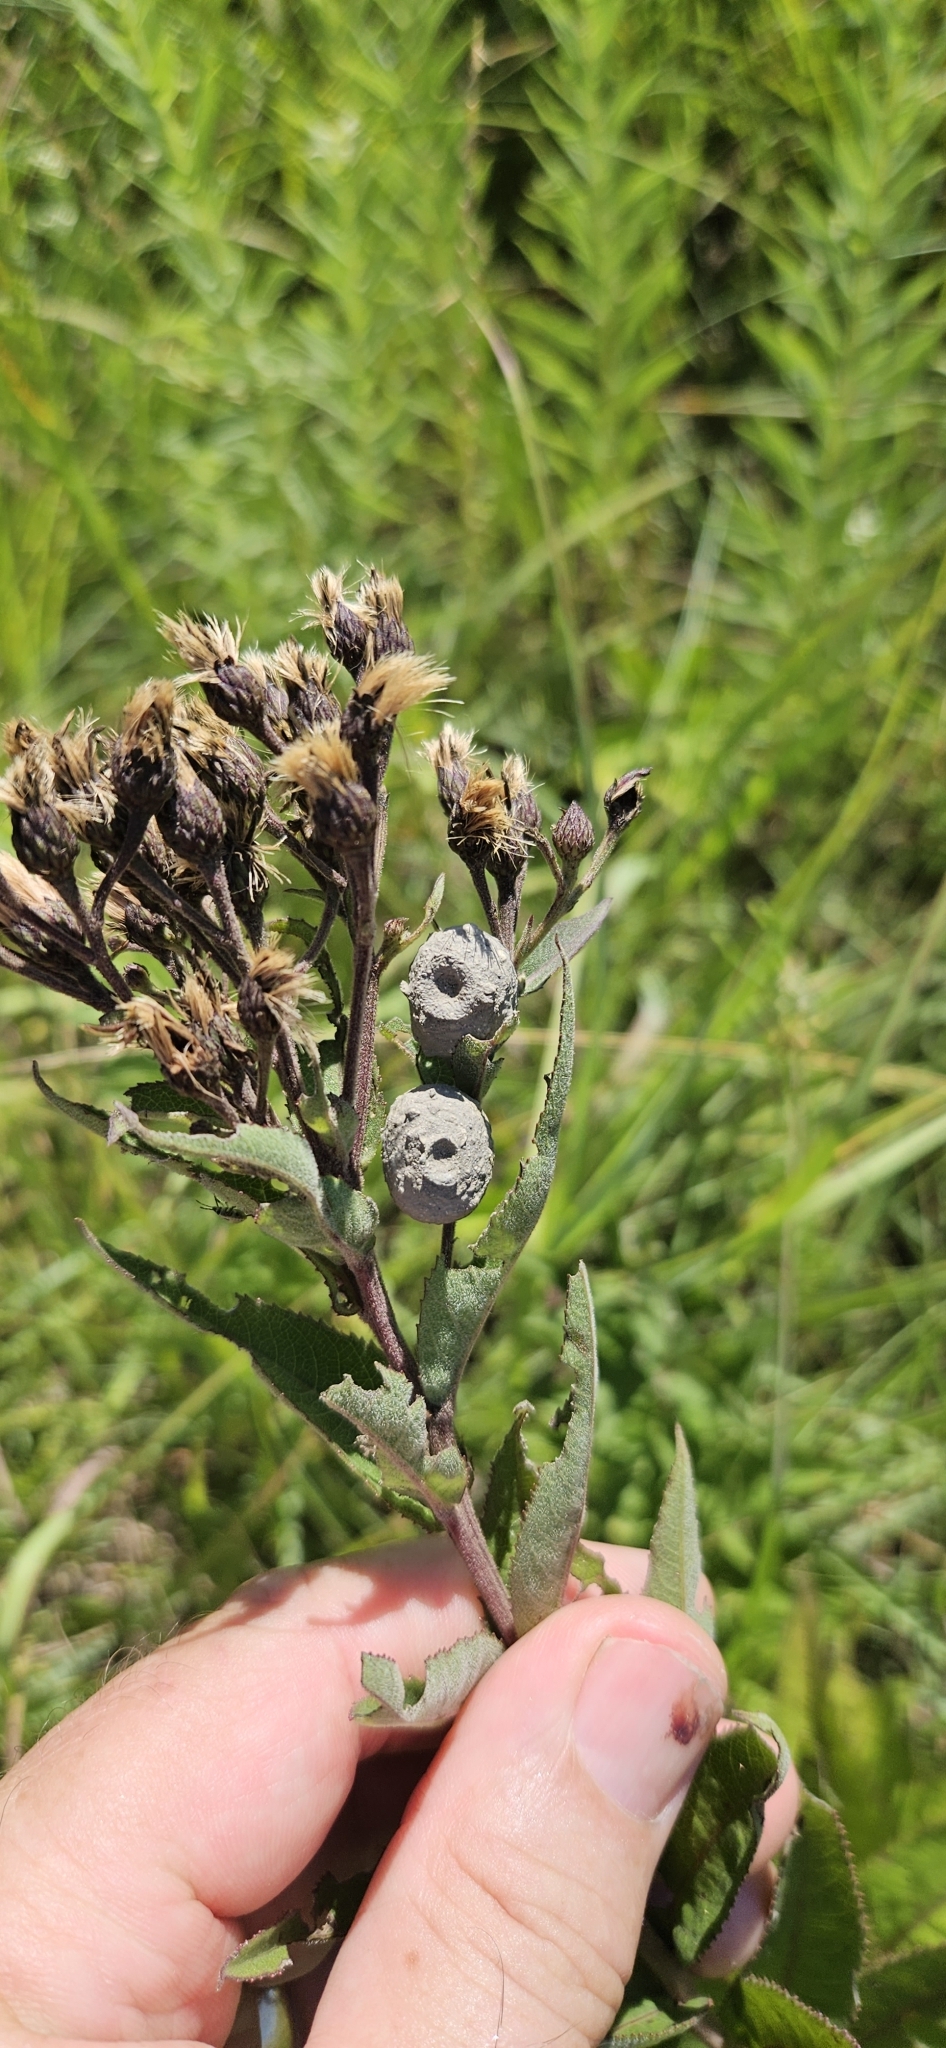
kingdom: Animalia
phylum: Arthropoda
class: Insecta
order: Hymenoptera
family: Vespidae
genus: Eumenes
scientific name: Eumenes
